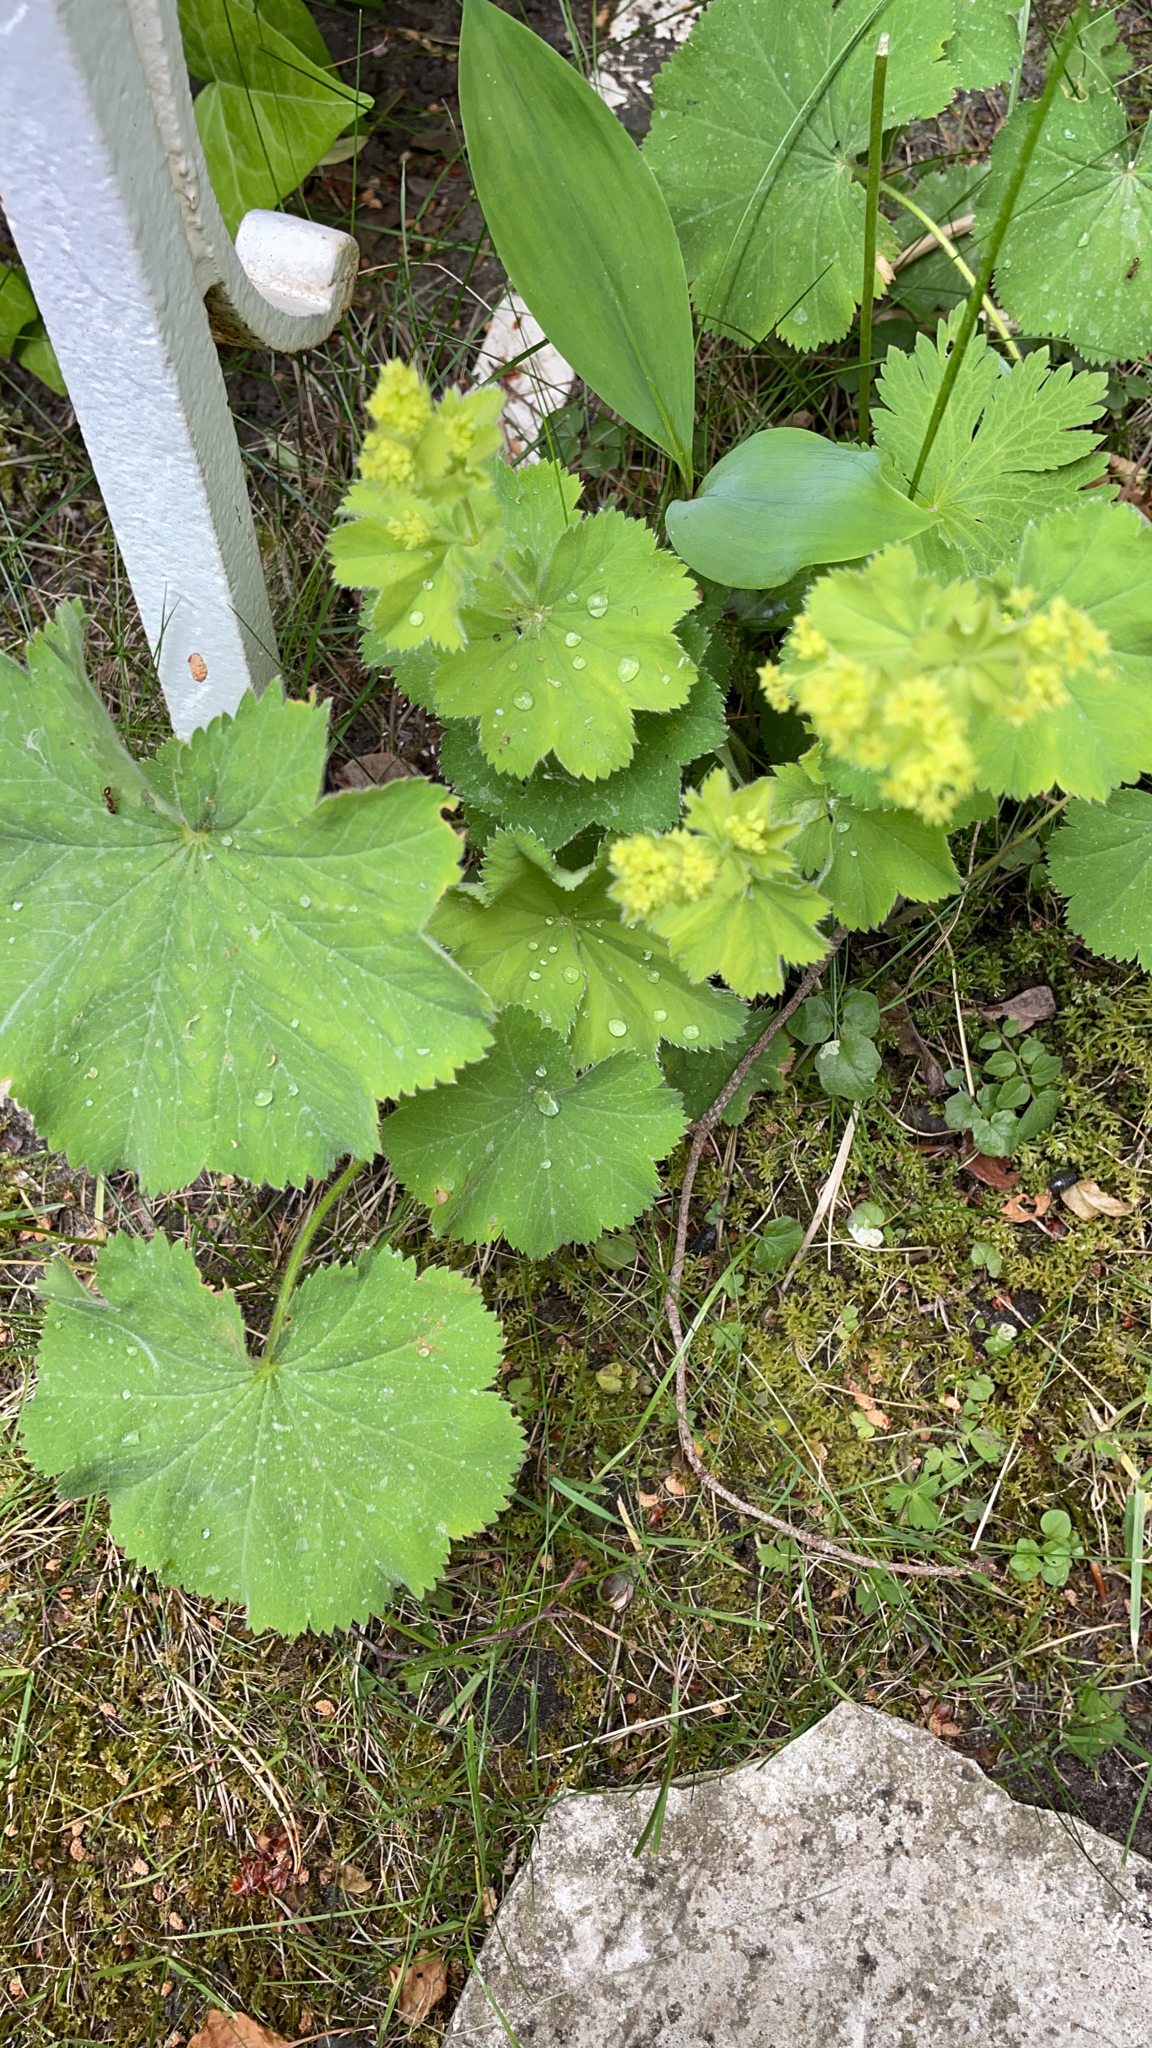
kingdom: Plantae
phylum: Tracheophyta
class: Magnoliopsida
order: Rosales
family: Rosaceae
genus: Alchemilla
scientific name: Alchemilla mollis
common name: Lady's-mantle
